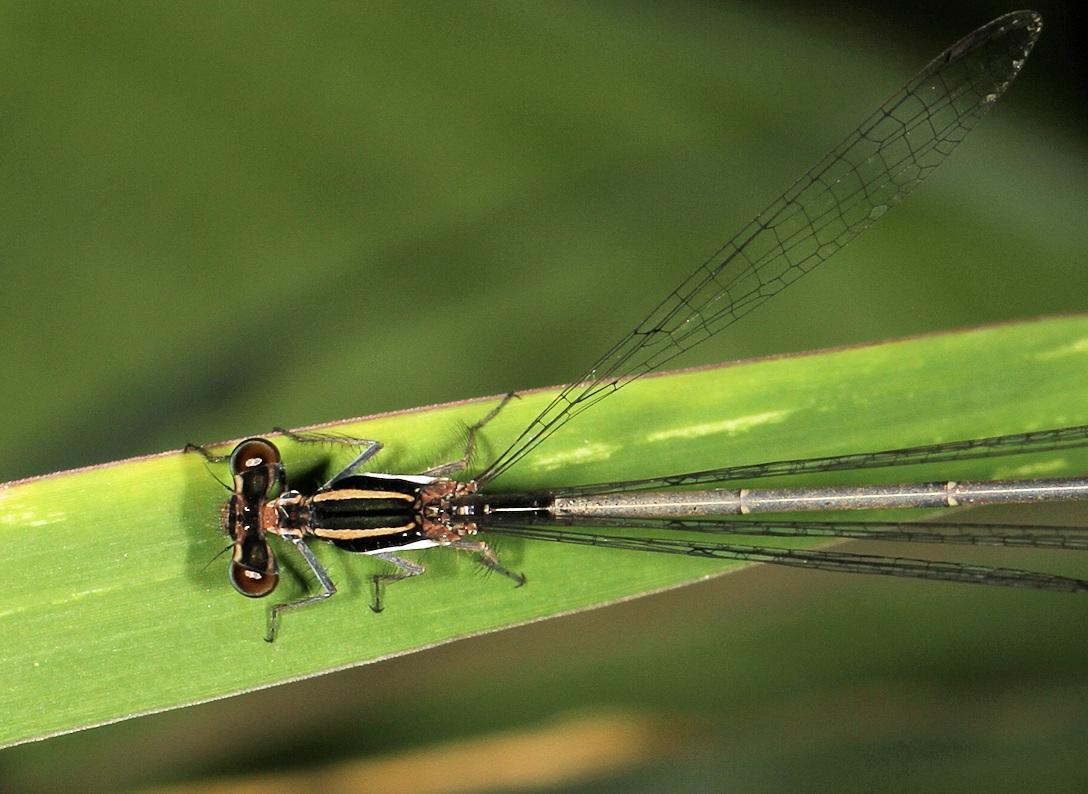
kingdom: Animalia
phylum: Arthropoda
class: Insecta
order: Odonata
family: Platycnemididae
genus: Elattoneura
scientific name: Elattoneura glauca
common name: Common threadtail
